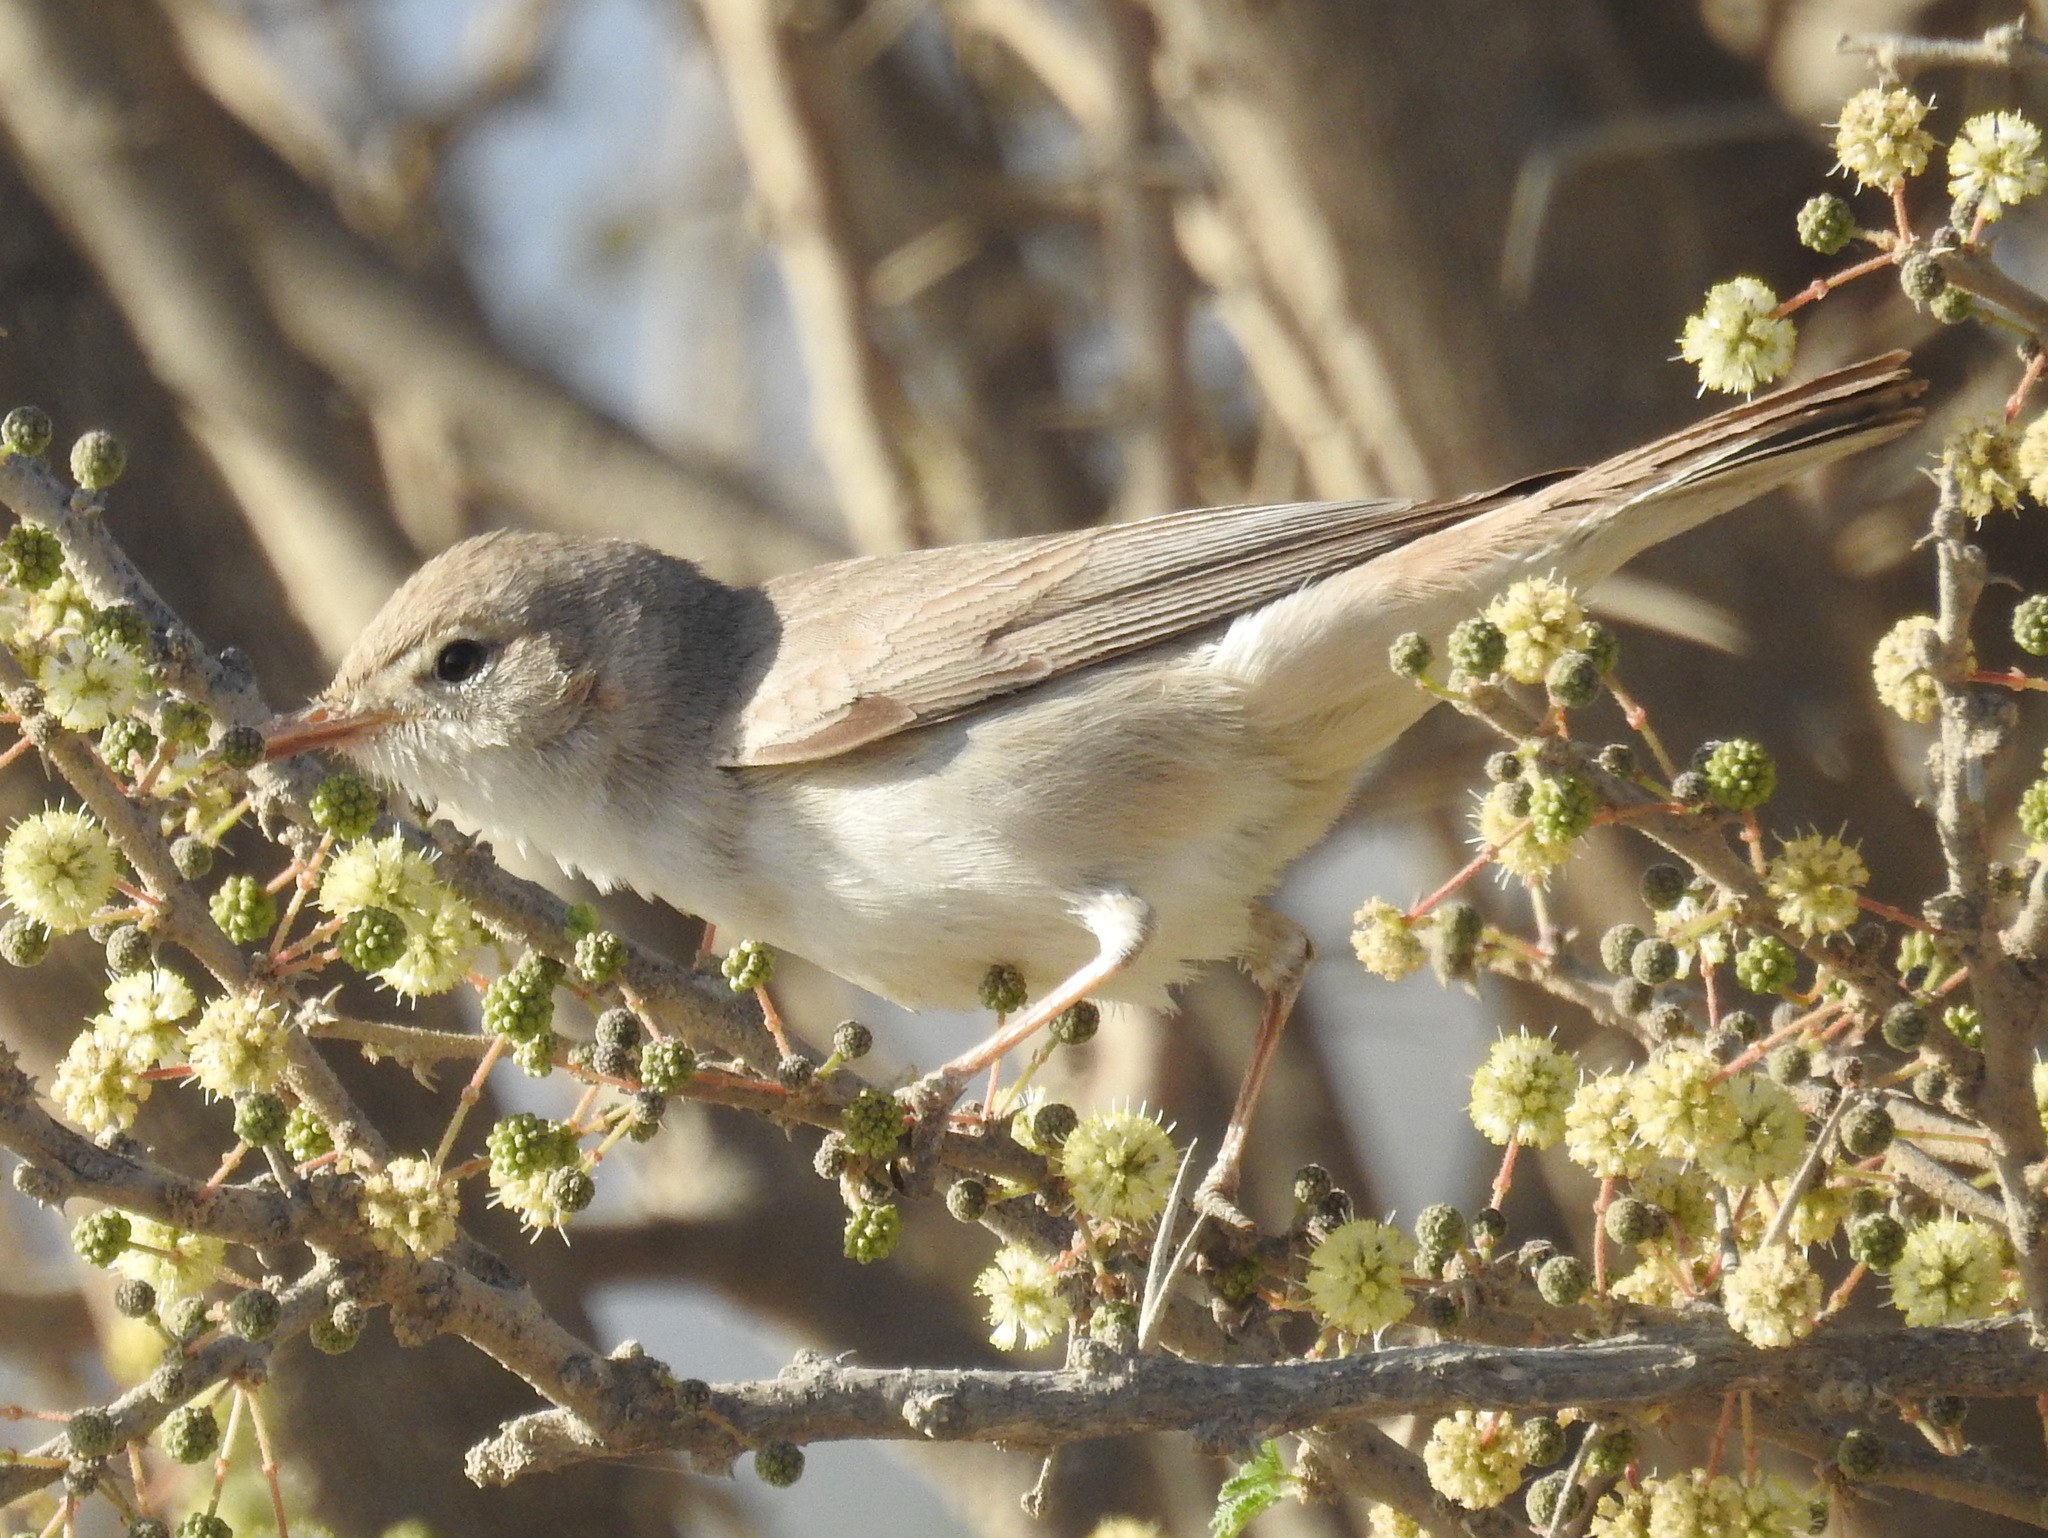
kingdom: Animalia
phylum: Chordata
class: Aves
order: Passeriformes
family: Acrocephalidae
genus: Hippolais
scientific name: Hippolais languida
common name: Upcher's warbler
